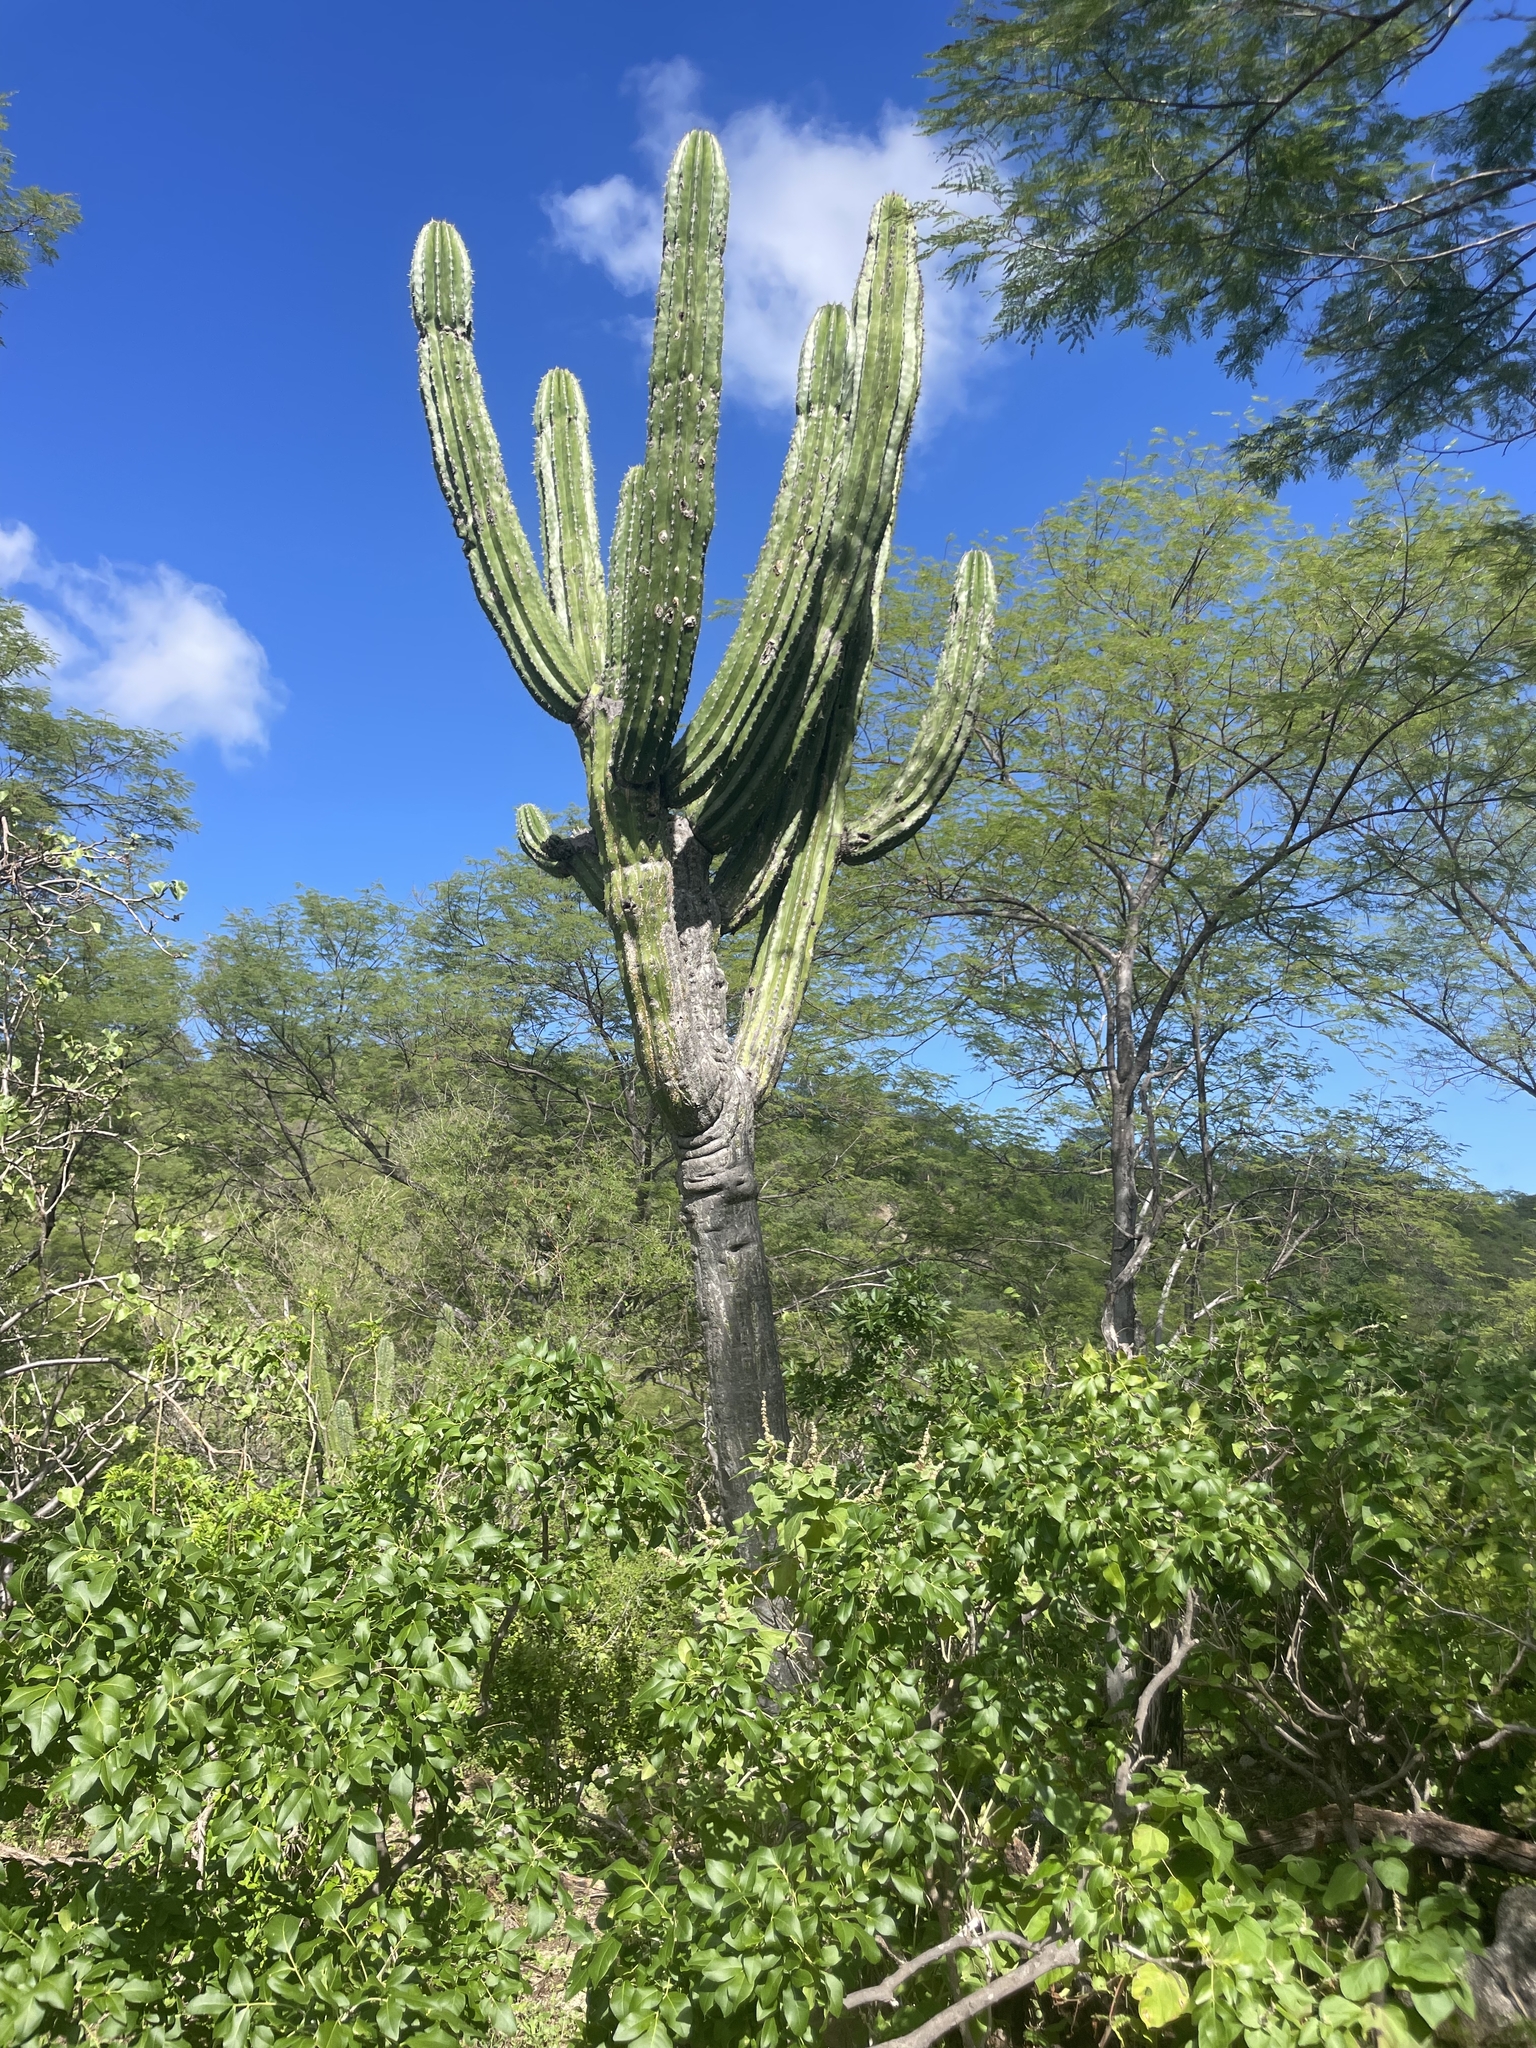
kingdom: Plantae
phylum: Tracheophyta
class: Magnoliopsida
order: Caryophyllales
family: Cactaceae
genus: Pachycereus
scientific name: Pachycereus pringlei
